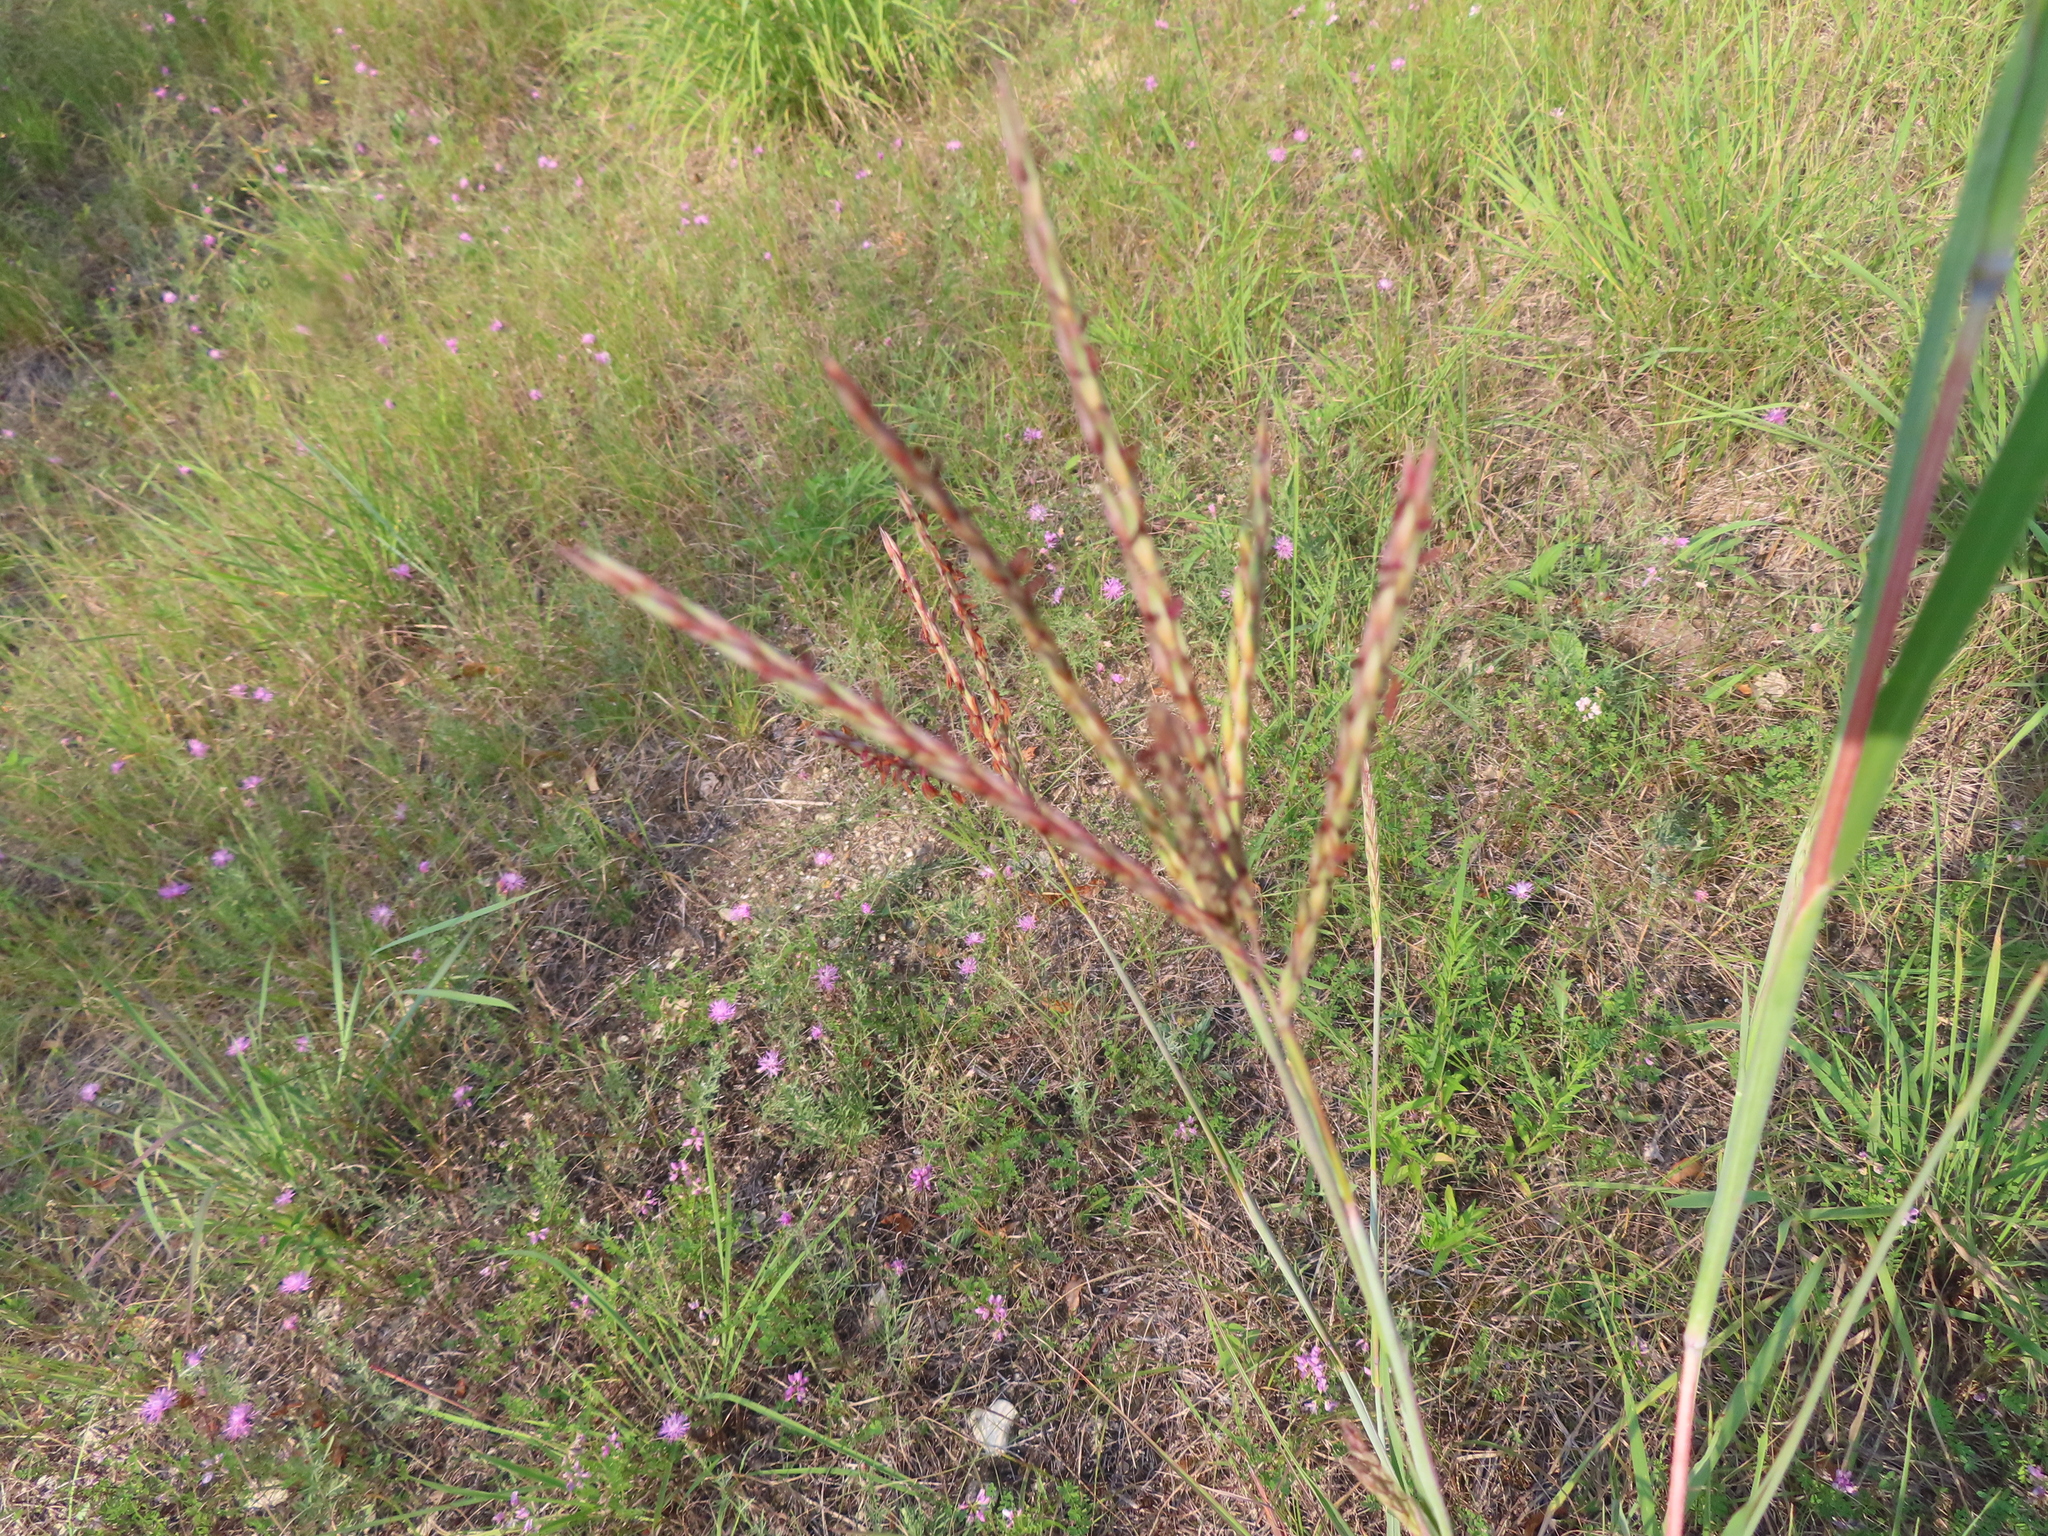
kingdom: Plantae
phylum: Tracheophyta
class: Liliopsida
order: Poales
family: Poaceae
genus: Andropogon
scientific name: Andropogon gerardi
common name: Big bluestem
